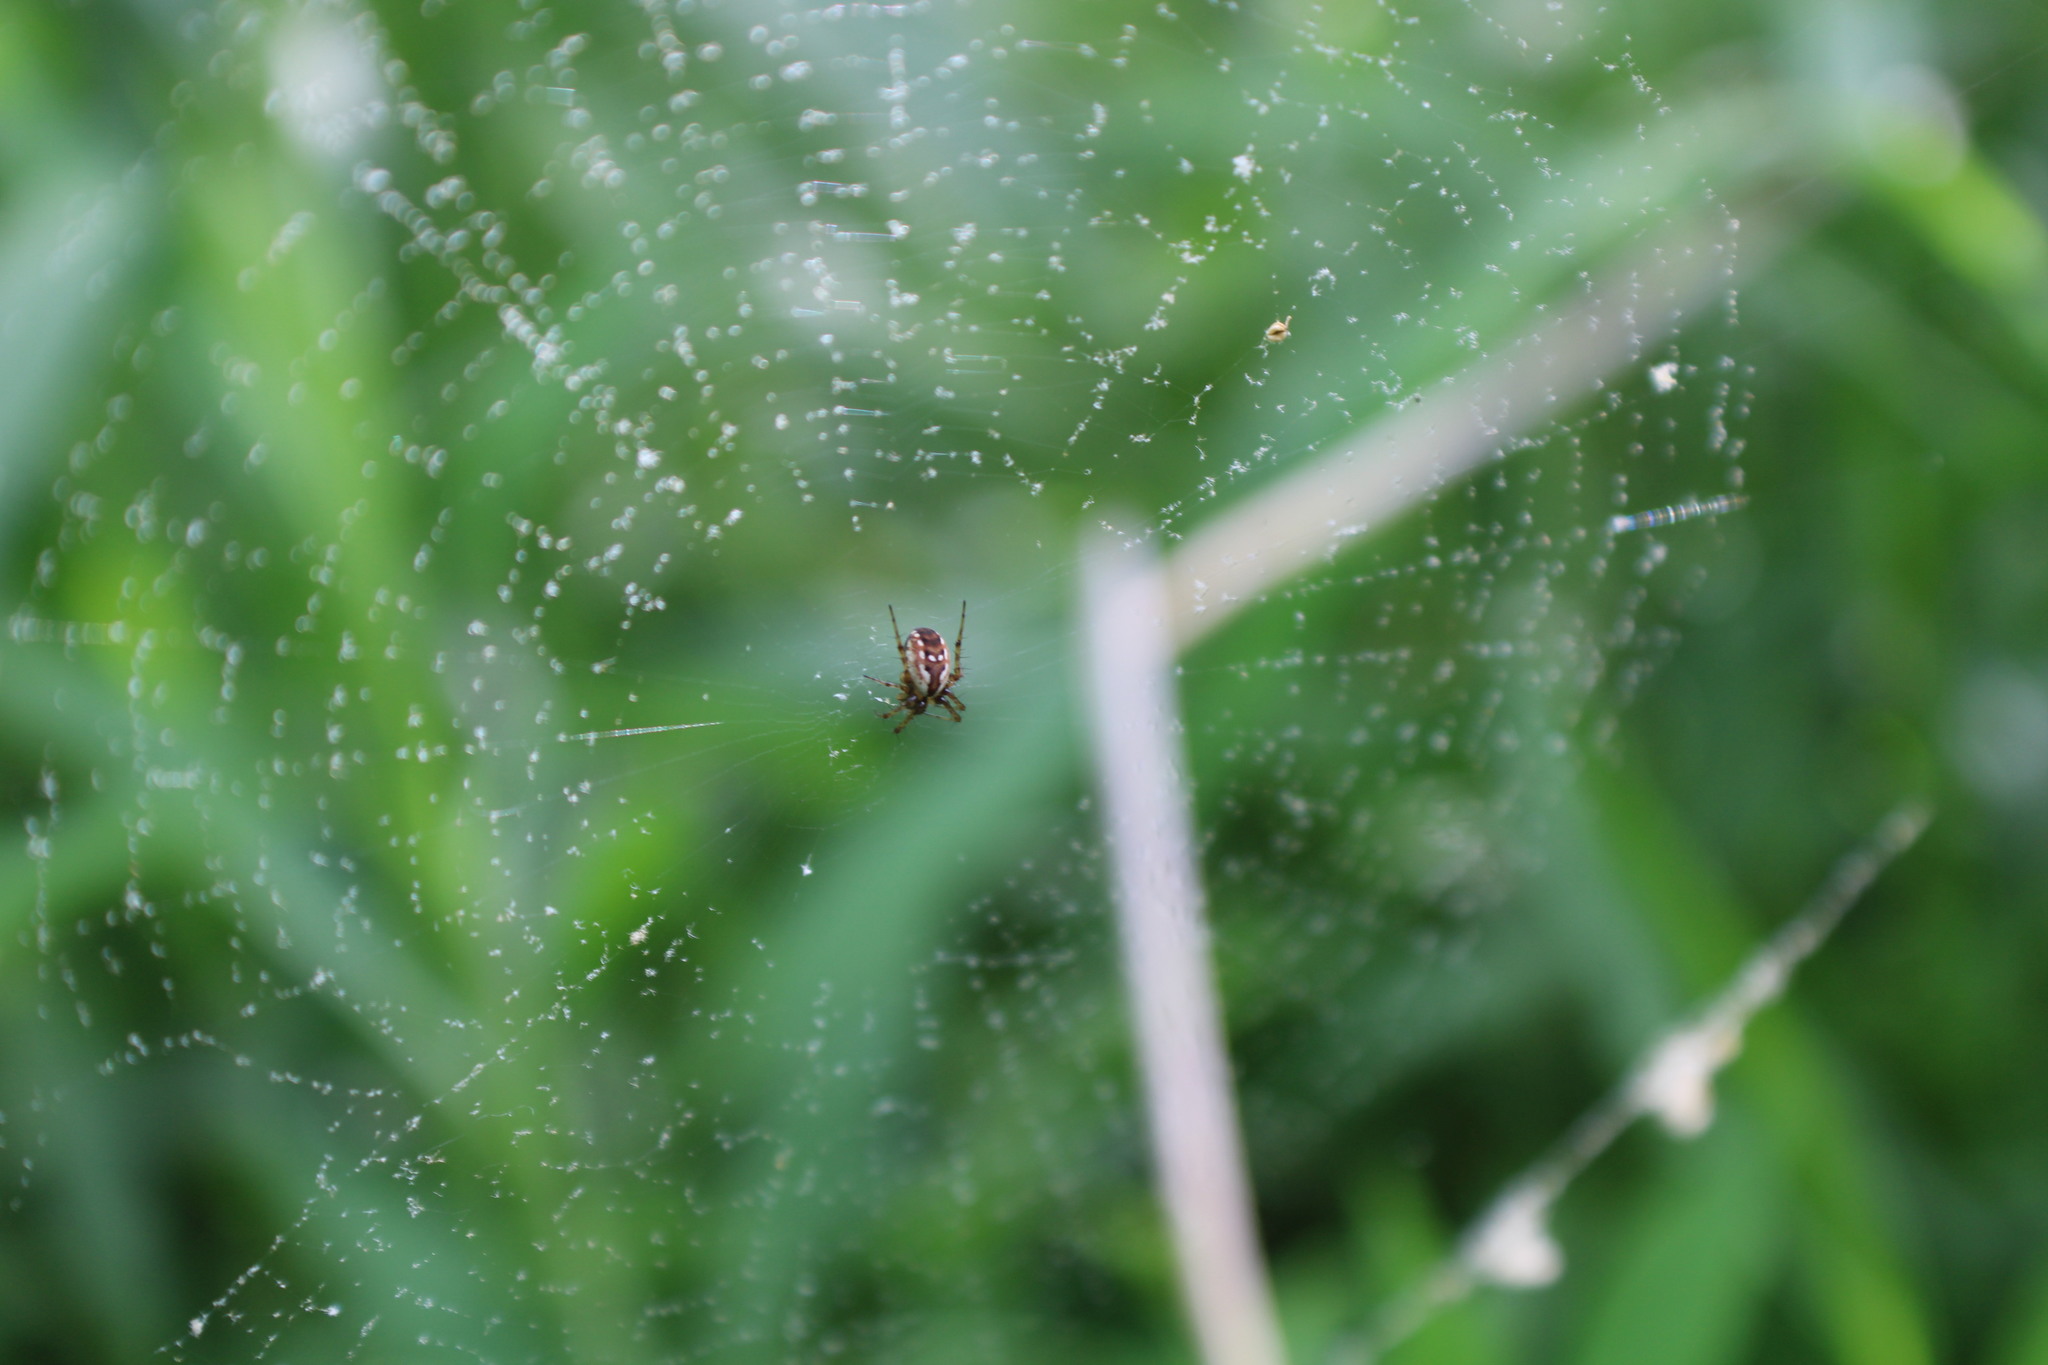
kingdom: Animalia
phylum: Arthropoda
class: Arachnida
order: Araneae
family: Araneidae
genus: Mangora
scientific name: Mangora placida
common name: Tuft-legged orbweaver
